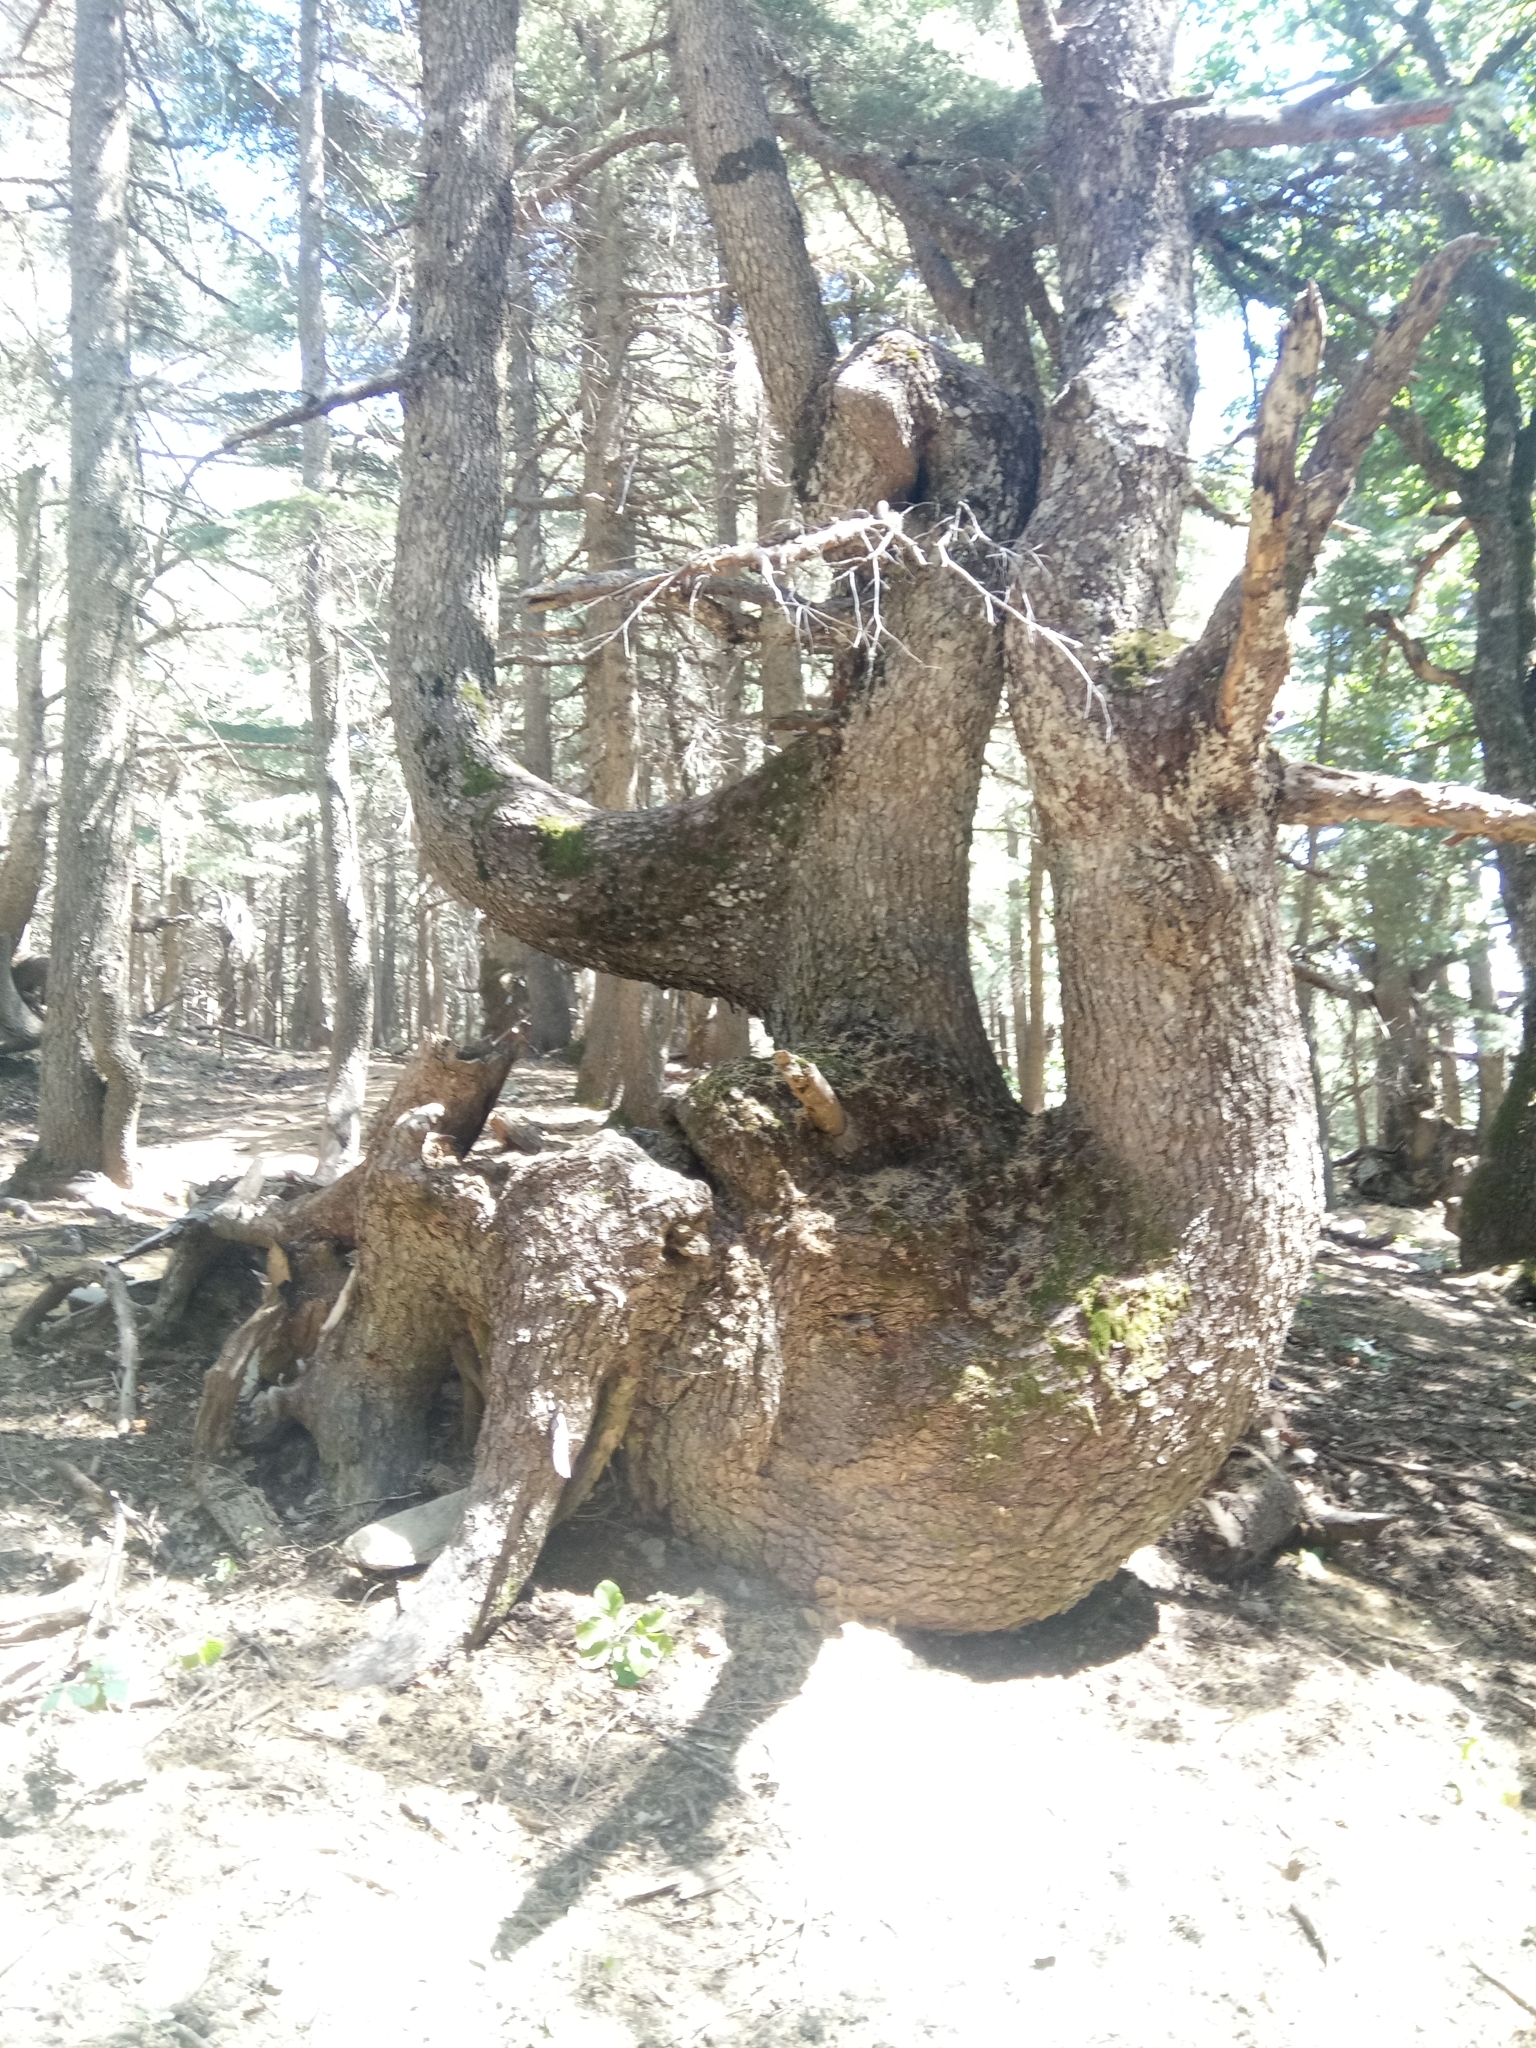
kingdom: Plantae
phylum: Tracheophyta
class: Pinopsida
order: Pinales
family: Pinaceae
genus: Cedrus
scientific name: Cedrus atlantica
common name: Atlas cedar
